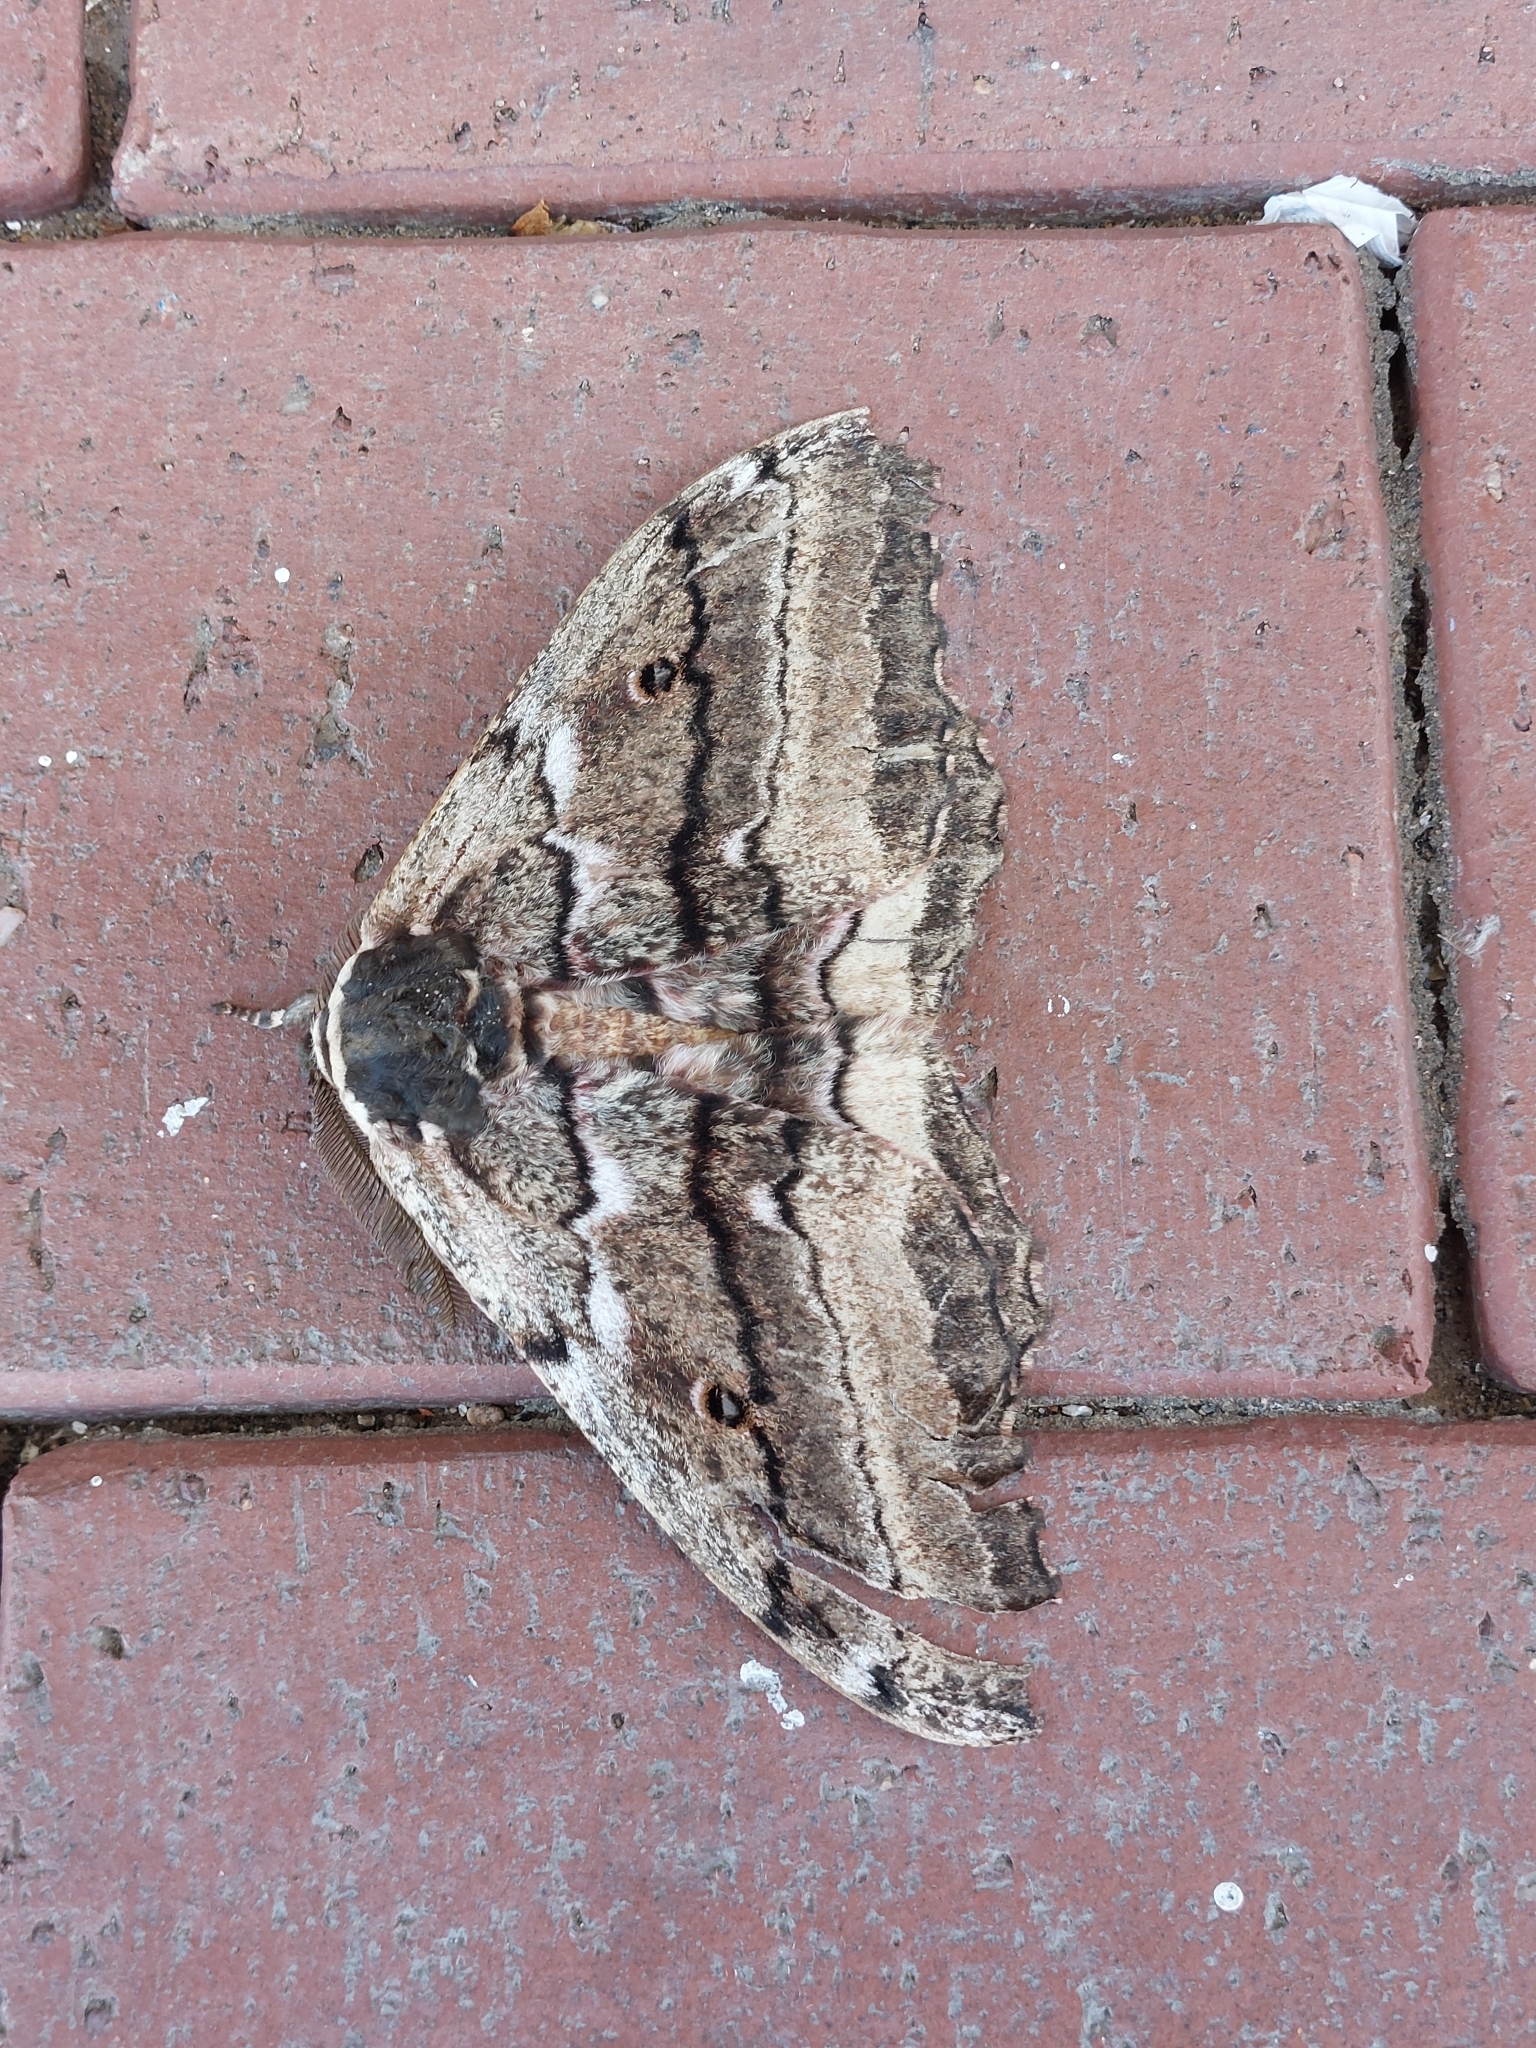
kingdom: Animalia
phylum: Arthropoda
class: Insecta
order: Lepidoptera
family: Saturniidae
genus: Gynanisa
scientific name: Gynanisa maja
